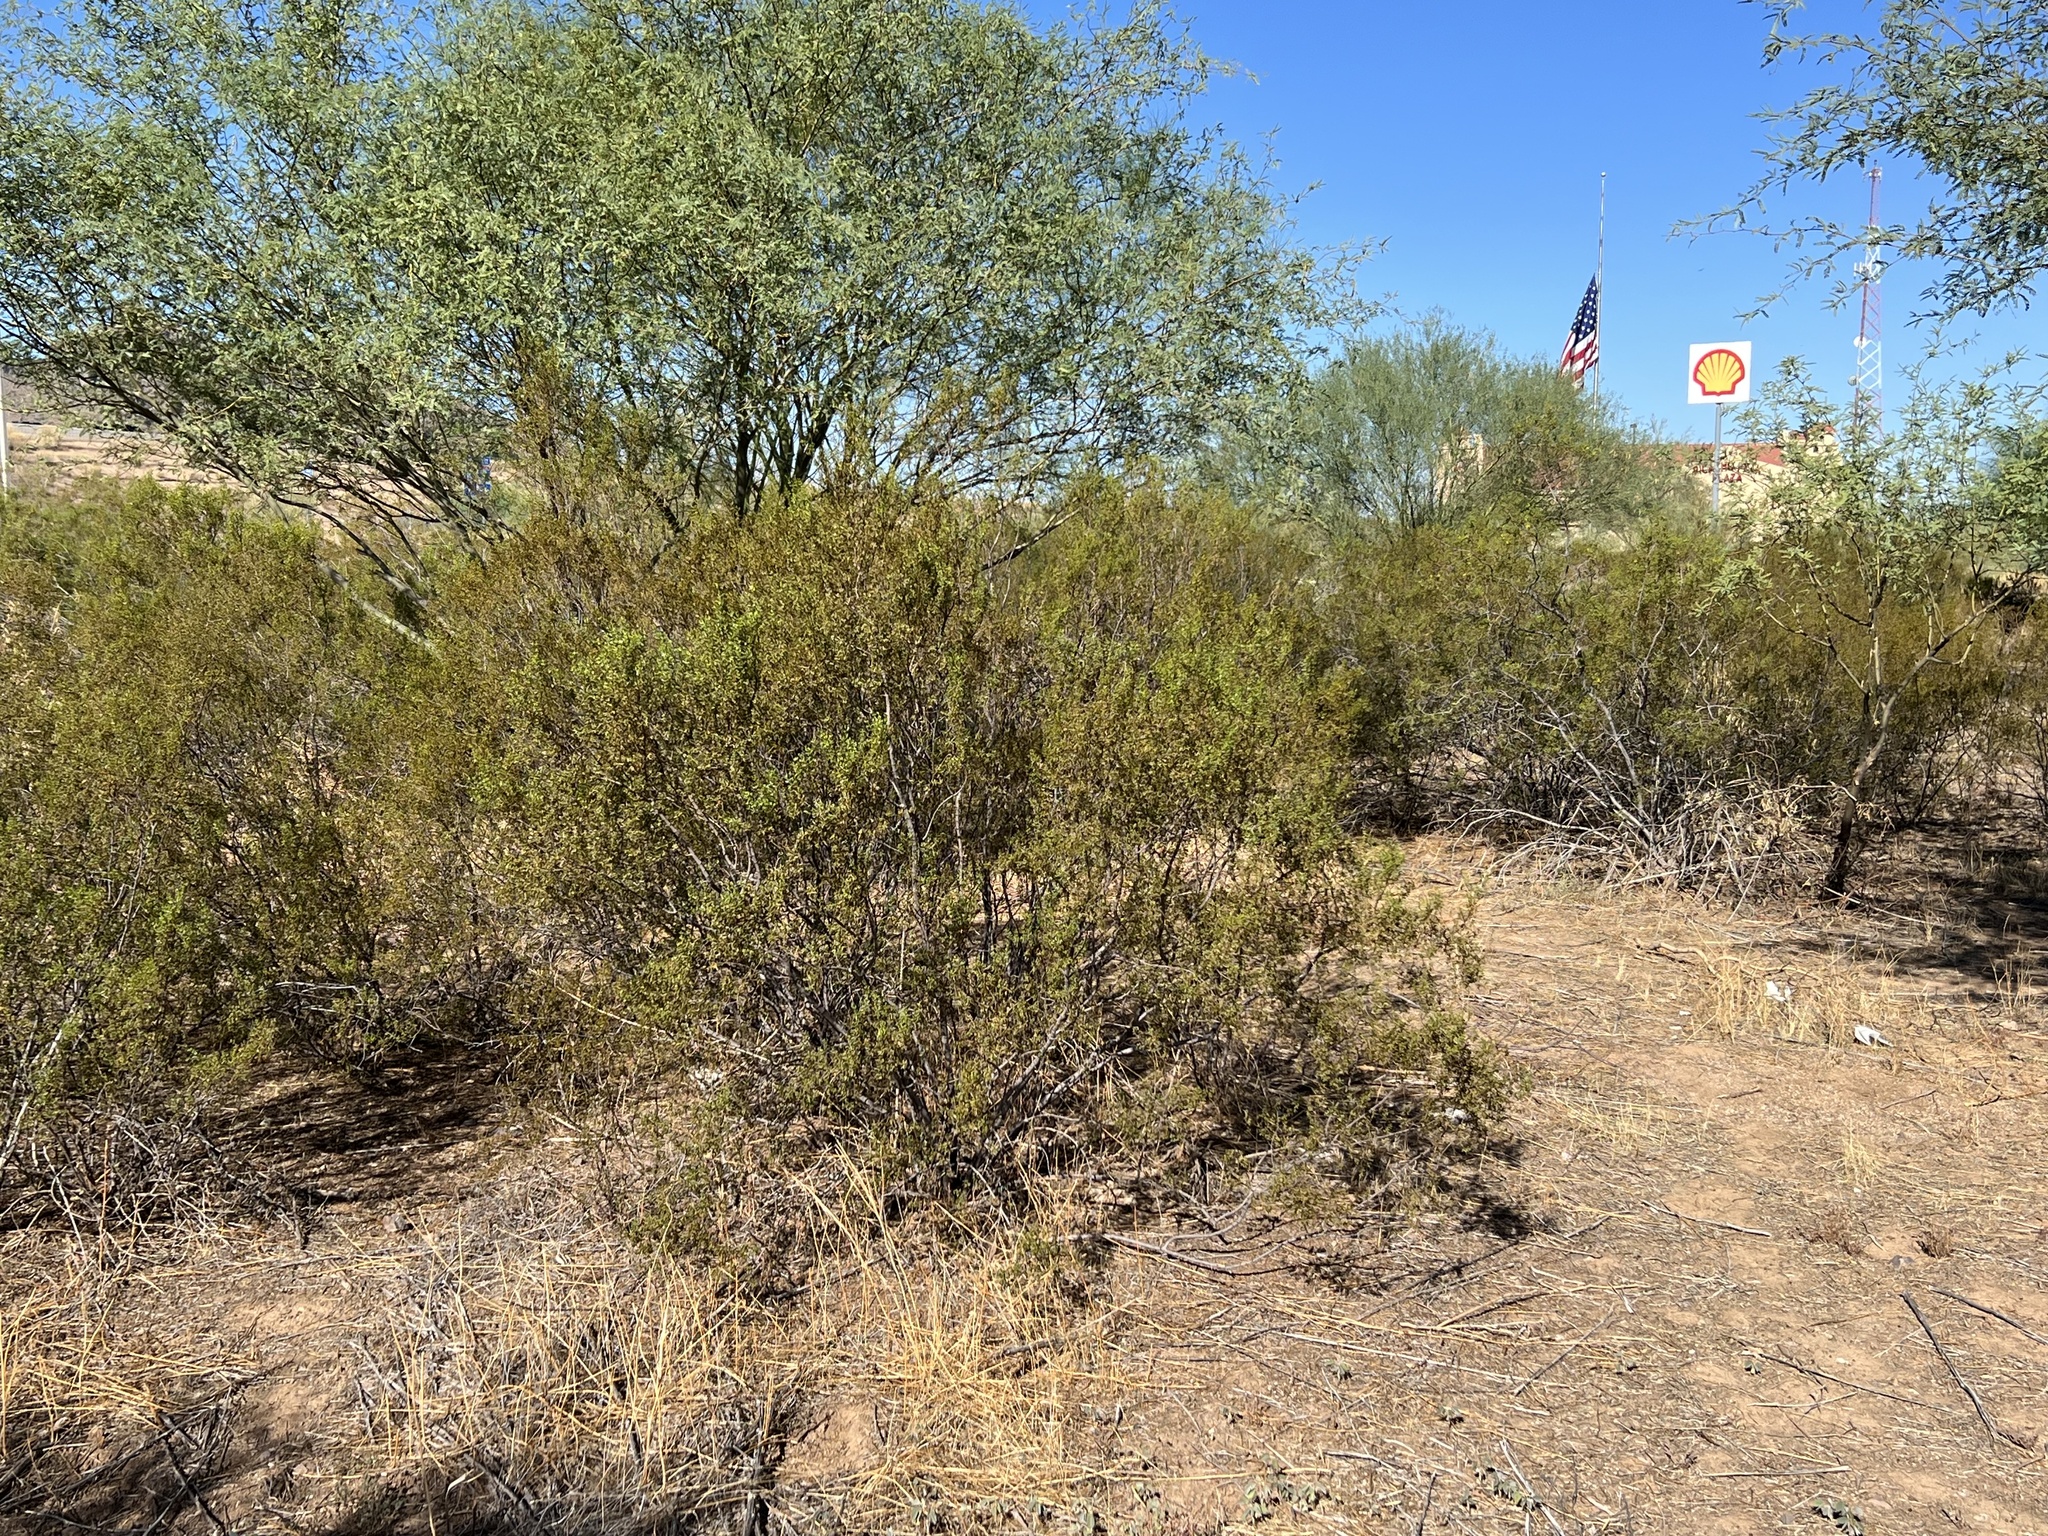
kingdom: Plantae
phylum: Tracheophyta
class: Magnoliopsida
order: Zygophyllales
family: Zygophyllaceae
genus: Larrea
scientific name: Larrea tridentata
